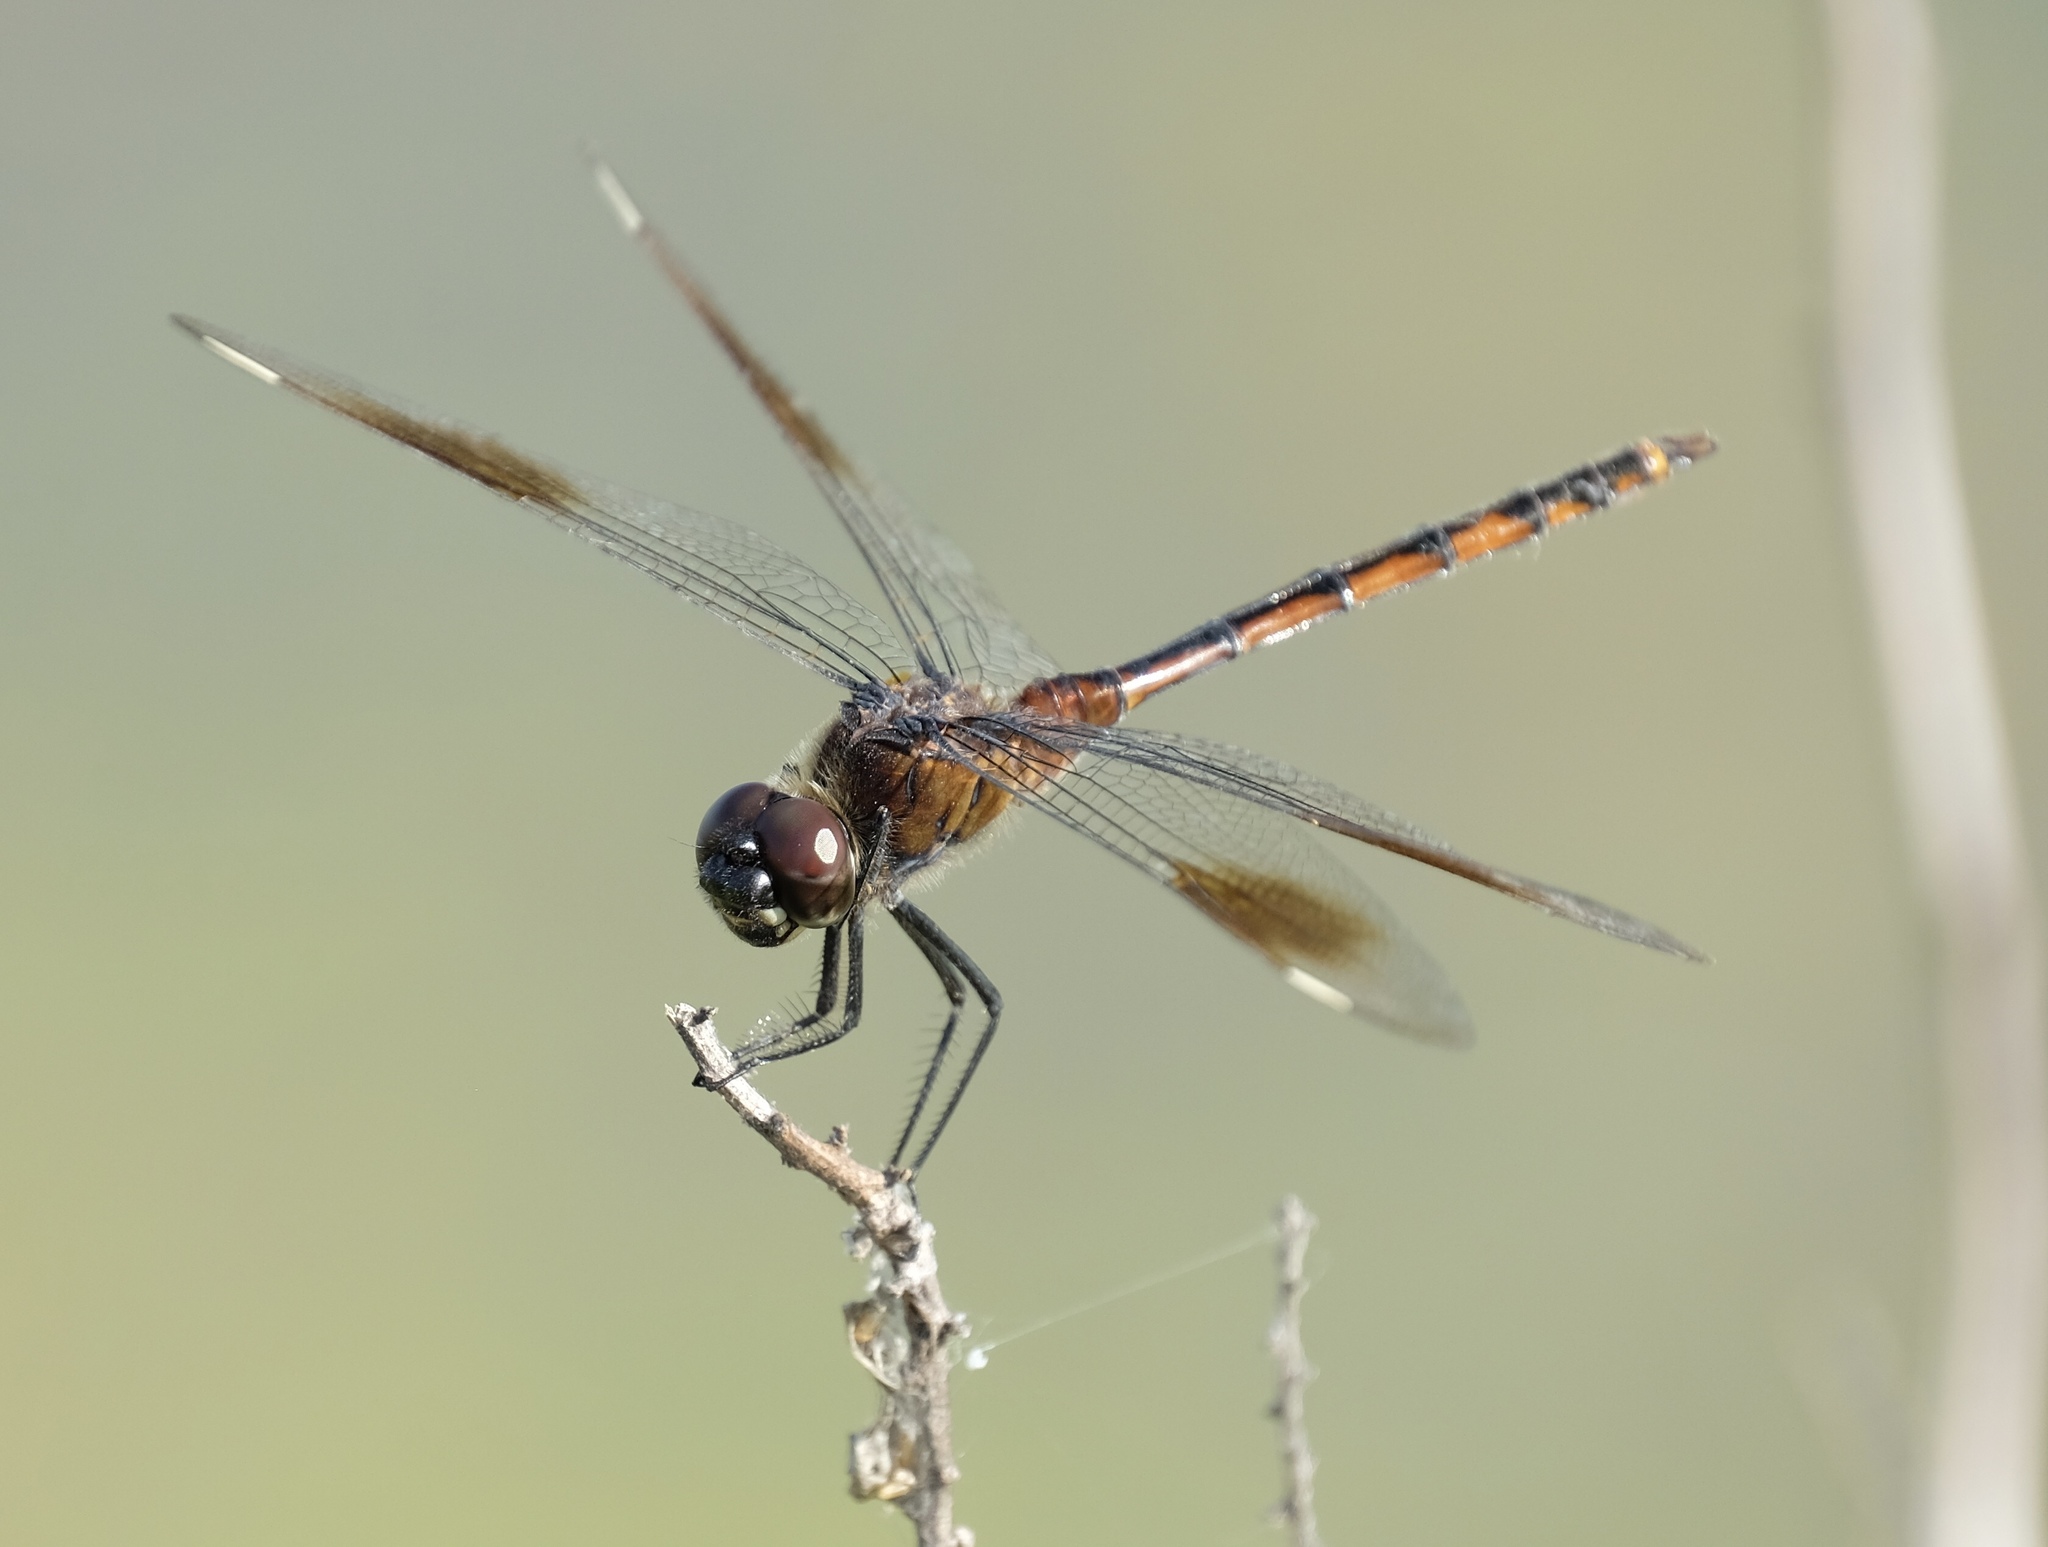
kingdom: Animalia
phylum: Arthropoda
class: Insecta
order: Odonata
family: Libellulidae
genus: Brachymesia
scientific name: Brachymesia gravida
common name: Four-spotted pennant
